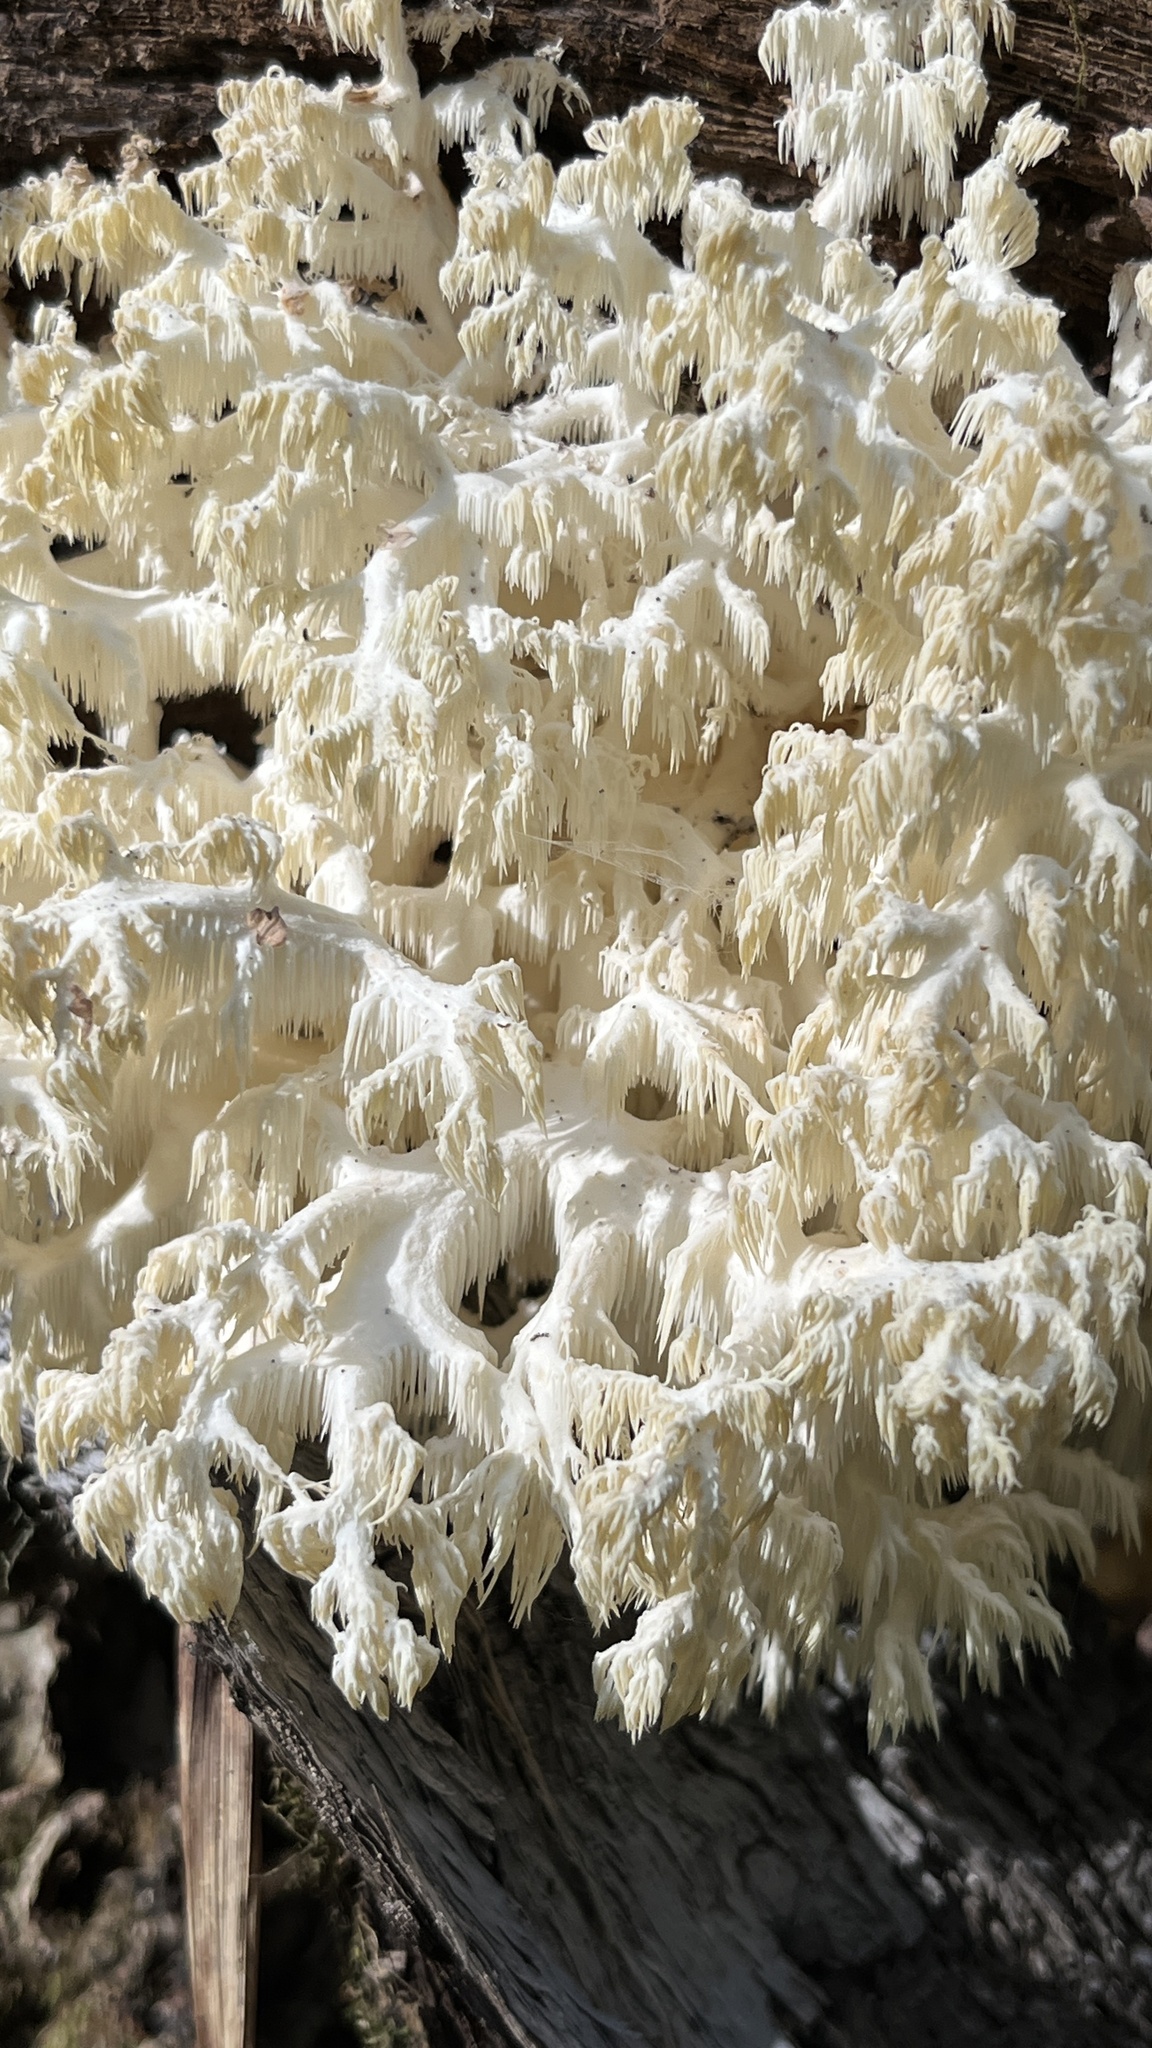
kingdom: Fungi
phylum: Basidiomycota
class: Agaricomycetes
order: Russulales
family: Hericiaceae
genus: Hericium
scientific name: Hericium coralloides
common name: Coral tooth
